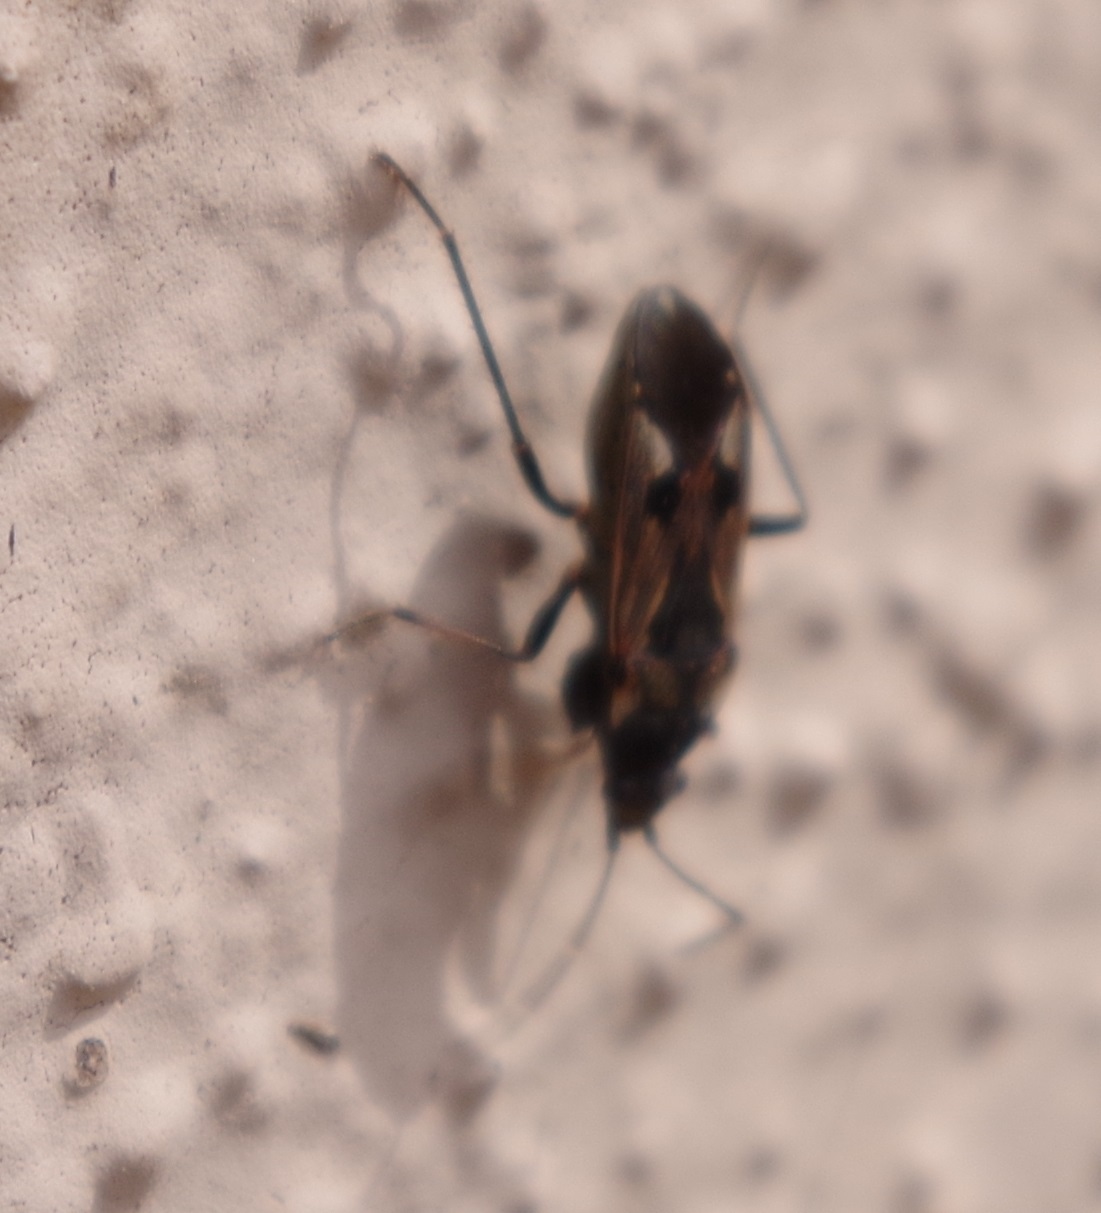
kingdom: Animalia
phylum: Arthropoda
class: Insecta
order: Hemiptera
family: Rhyparochromidae
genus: Rhyparochromus
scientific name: Rhyparochromus vulgaris
